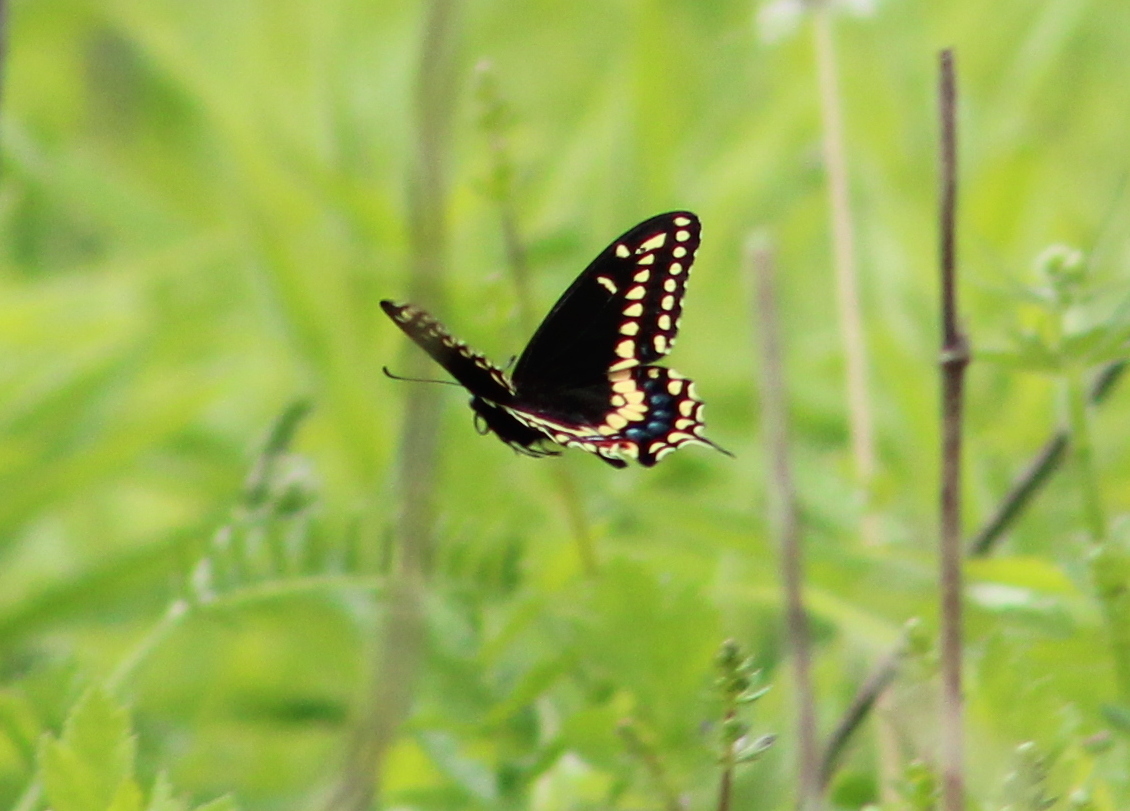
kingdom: Animalia
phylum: Arthropoda
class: Insecta
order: Lepidoptera
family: Papilionidae
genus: Papilio
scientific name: Papilio polyxenes
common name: Black swallowtail
